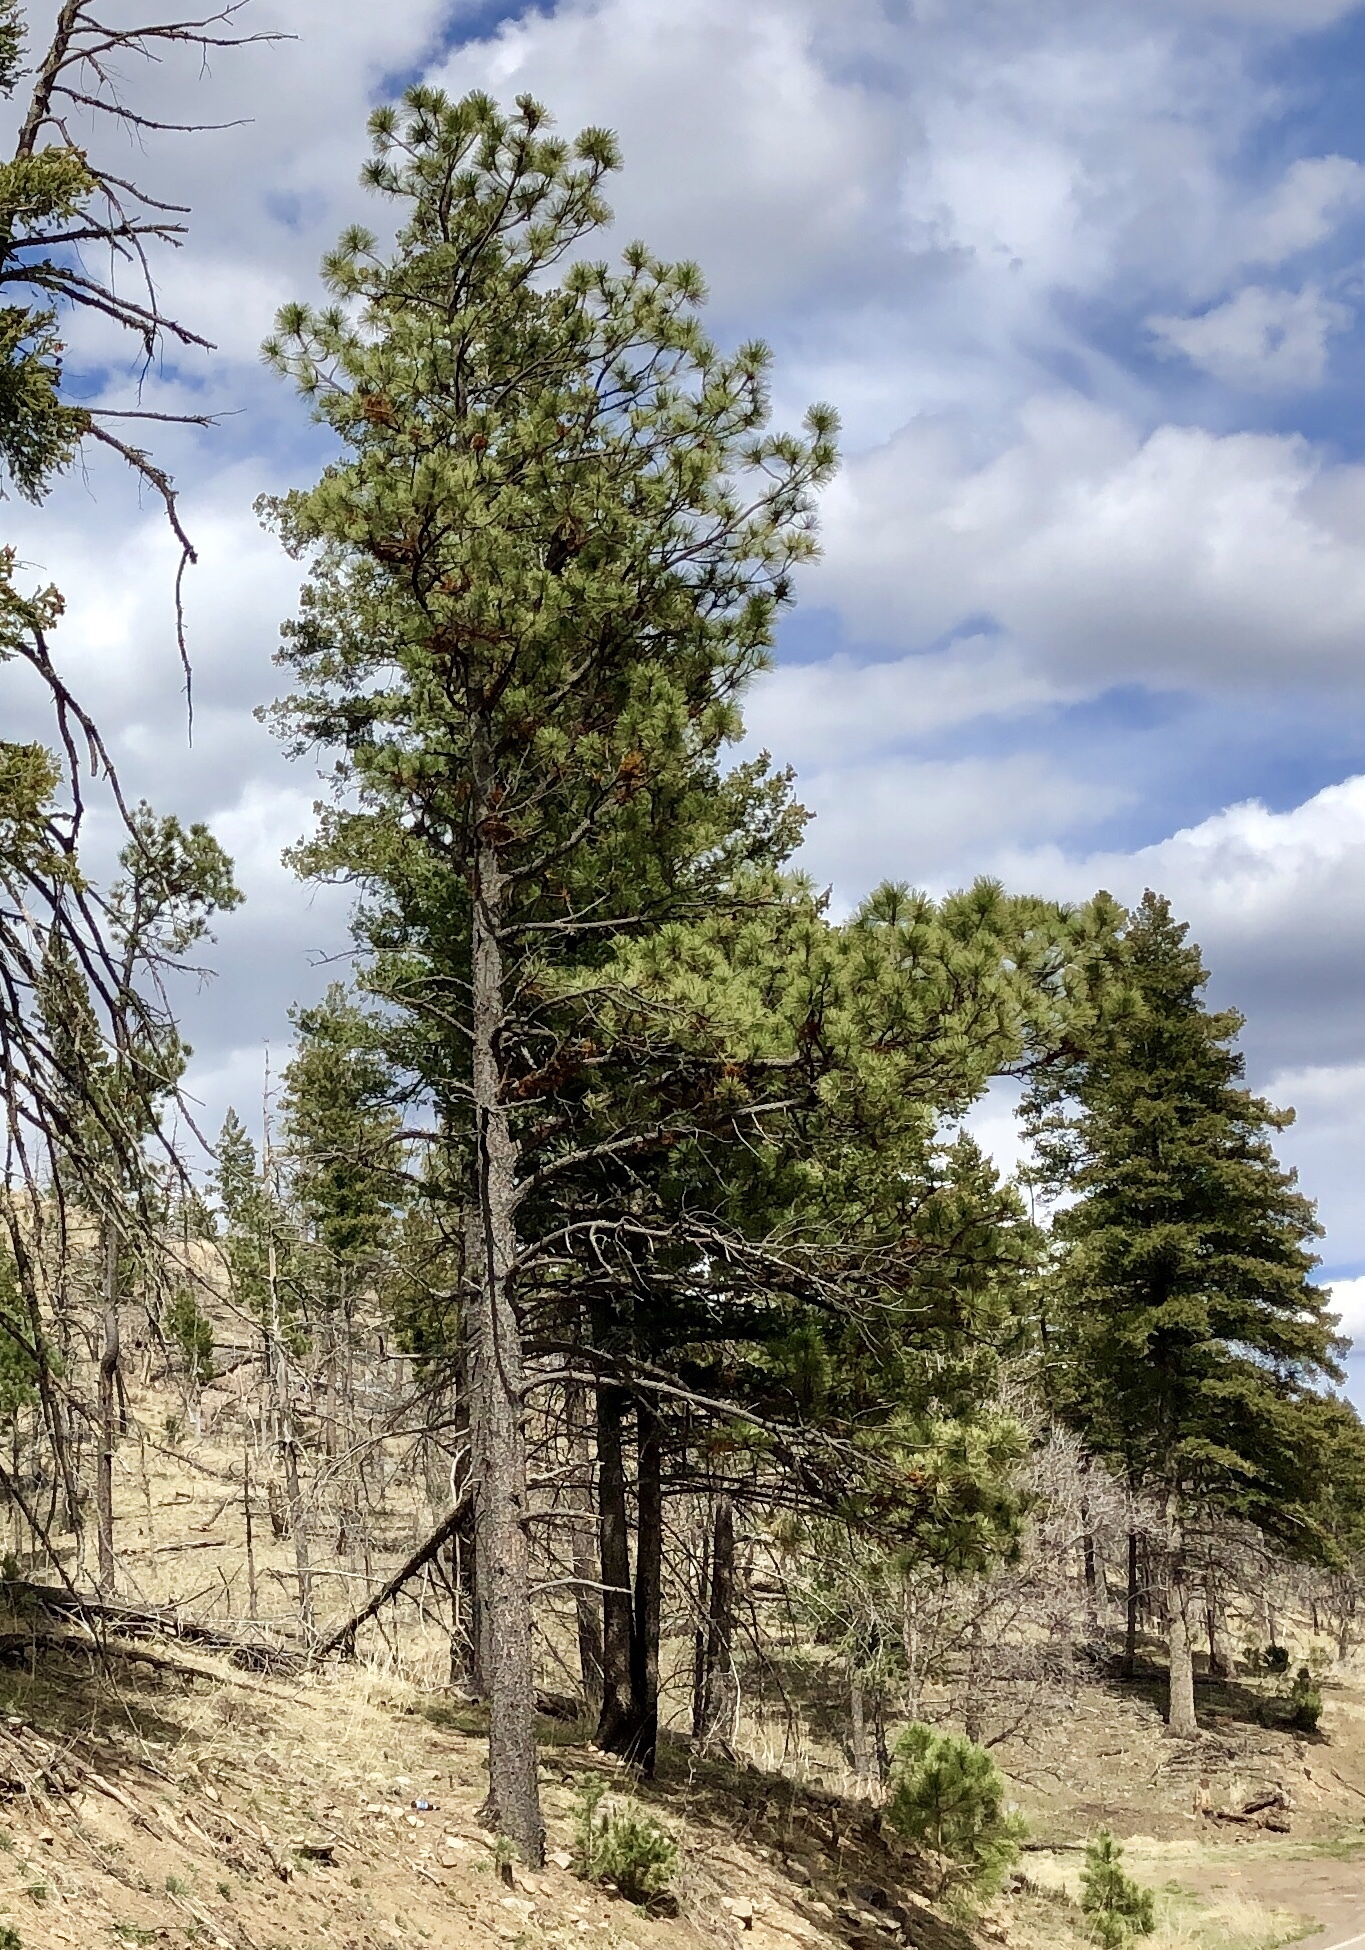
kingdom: Plantae
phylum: Tracheophyta
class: Pinopsida
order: Pinales
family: Pinaceae
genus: Pinus
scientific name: Pinus ponderosa
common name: Western yellow-pine
